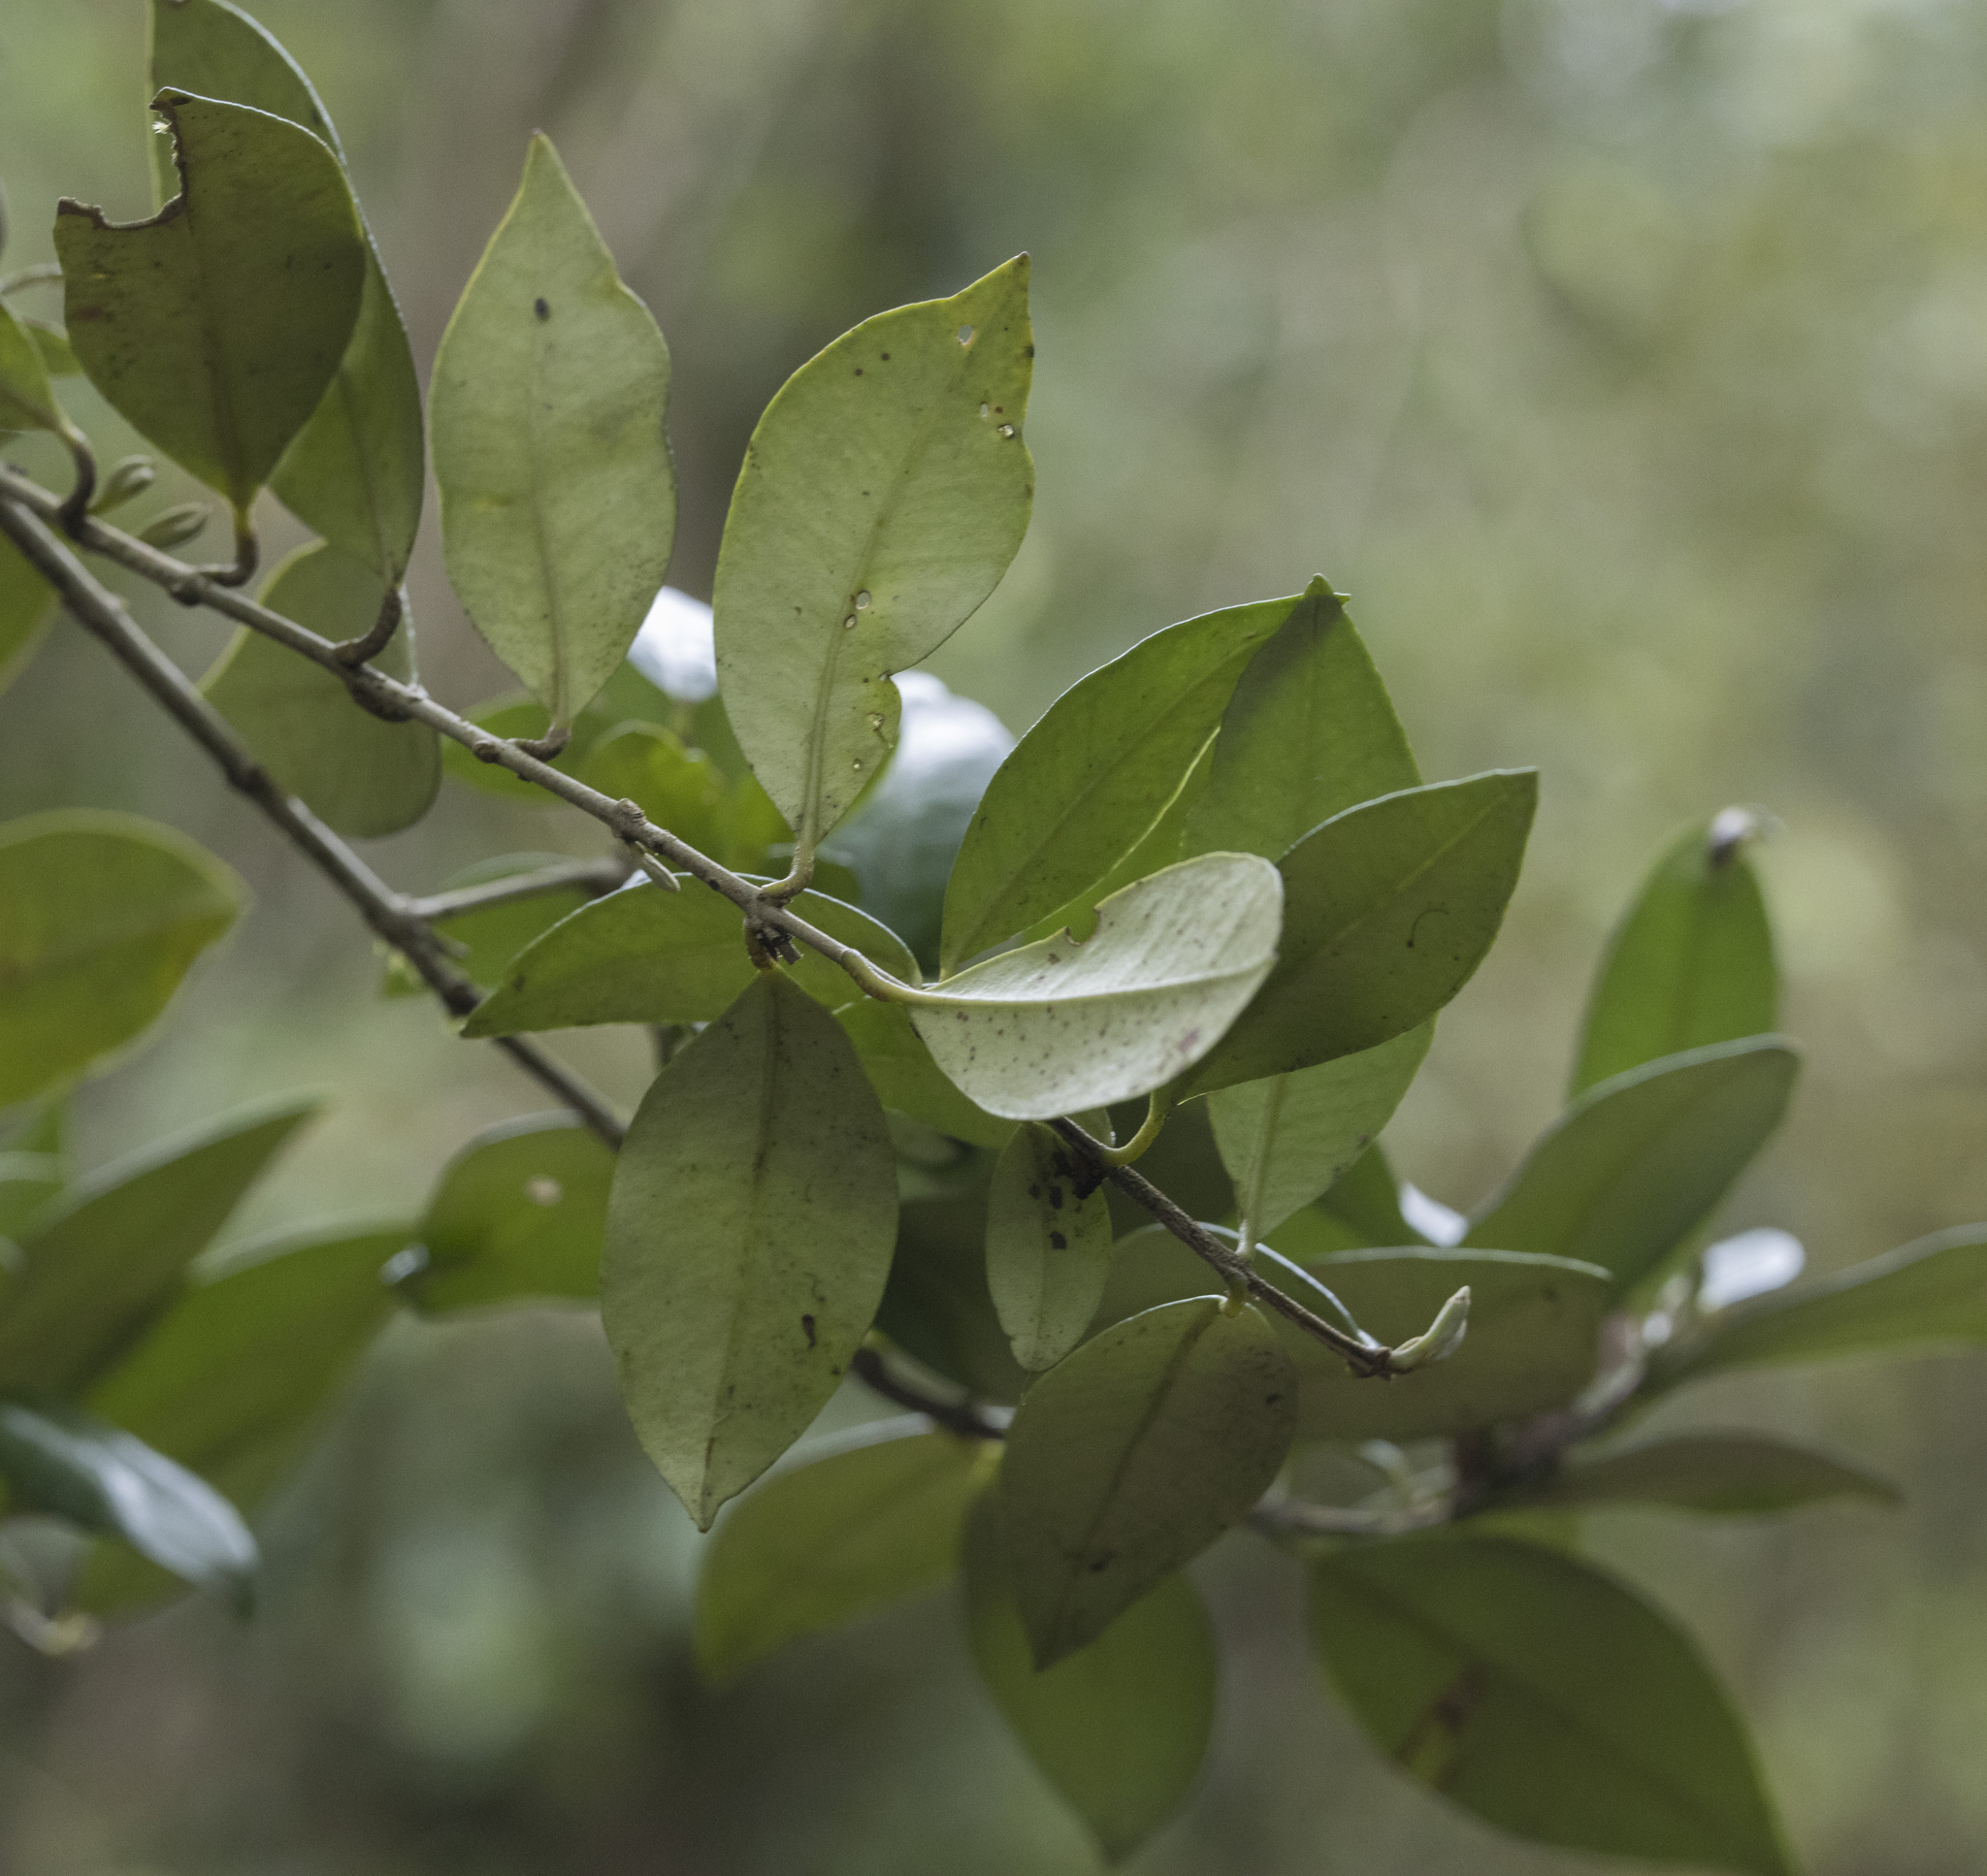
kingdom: Plantae
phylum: Tracheophyta
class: Magnoliopsida
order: Myrtales
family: Myrtaceae
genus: Myrceugenia
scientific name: Myrceugenia planipes
